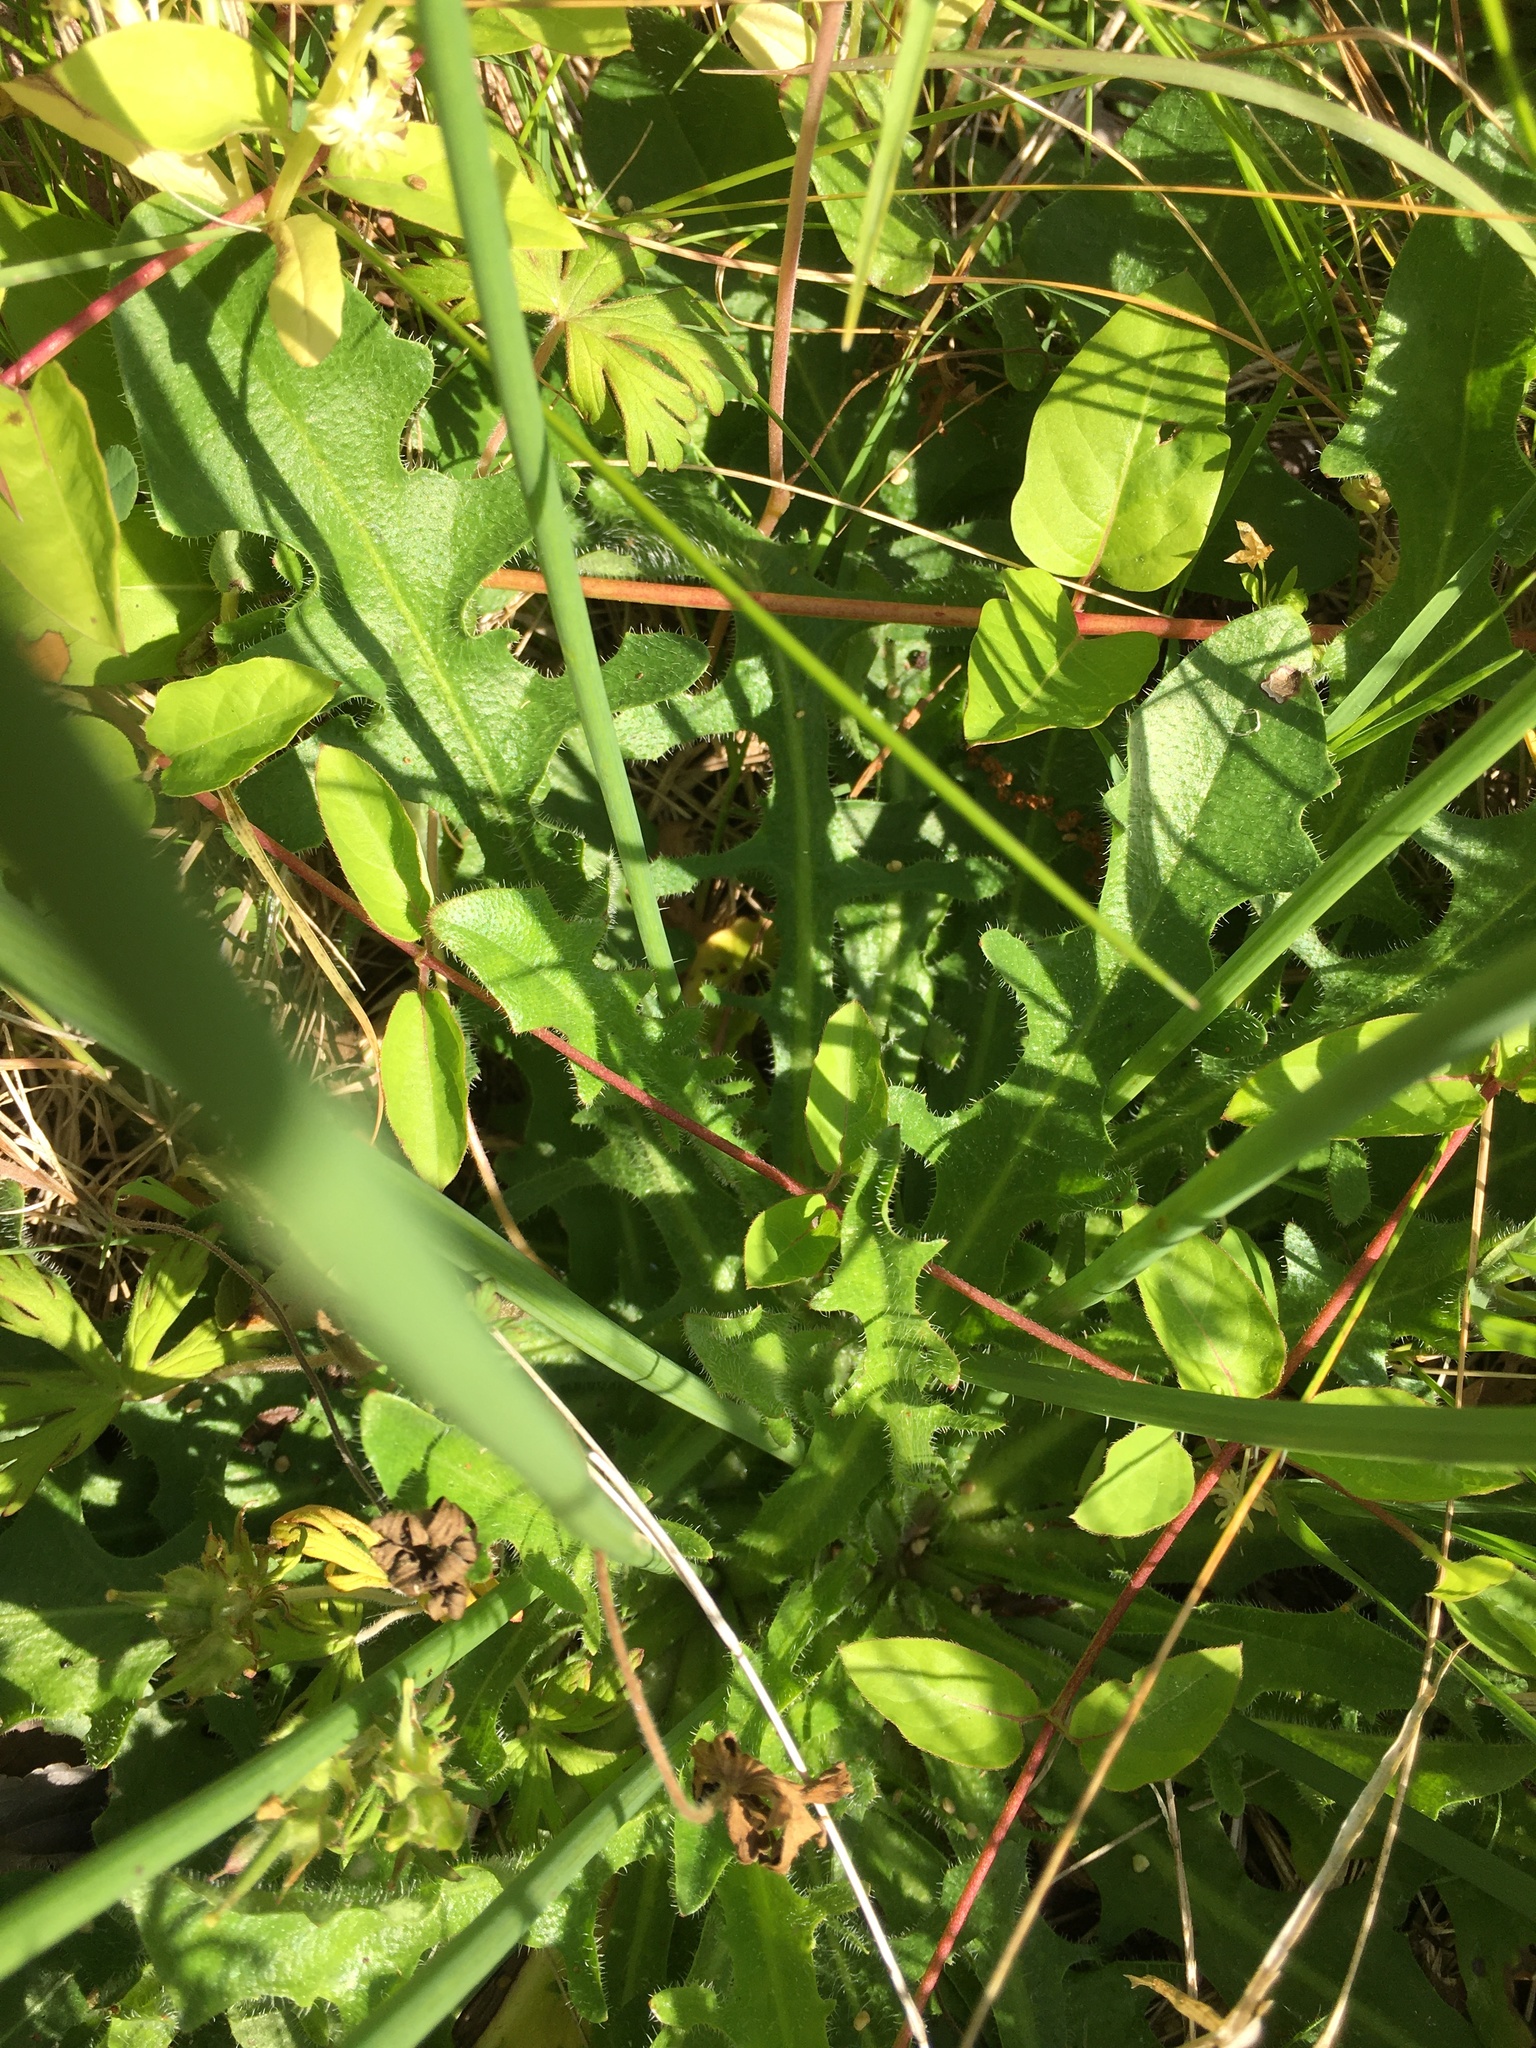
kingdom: Plantae
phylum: Tracheophyta
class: Magnoliopsida
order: Asterales
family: Asteraceae
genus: Hypochaeris
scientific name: Hypochaeris radicata
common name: Flatweed
